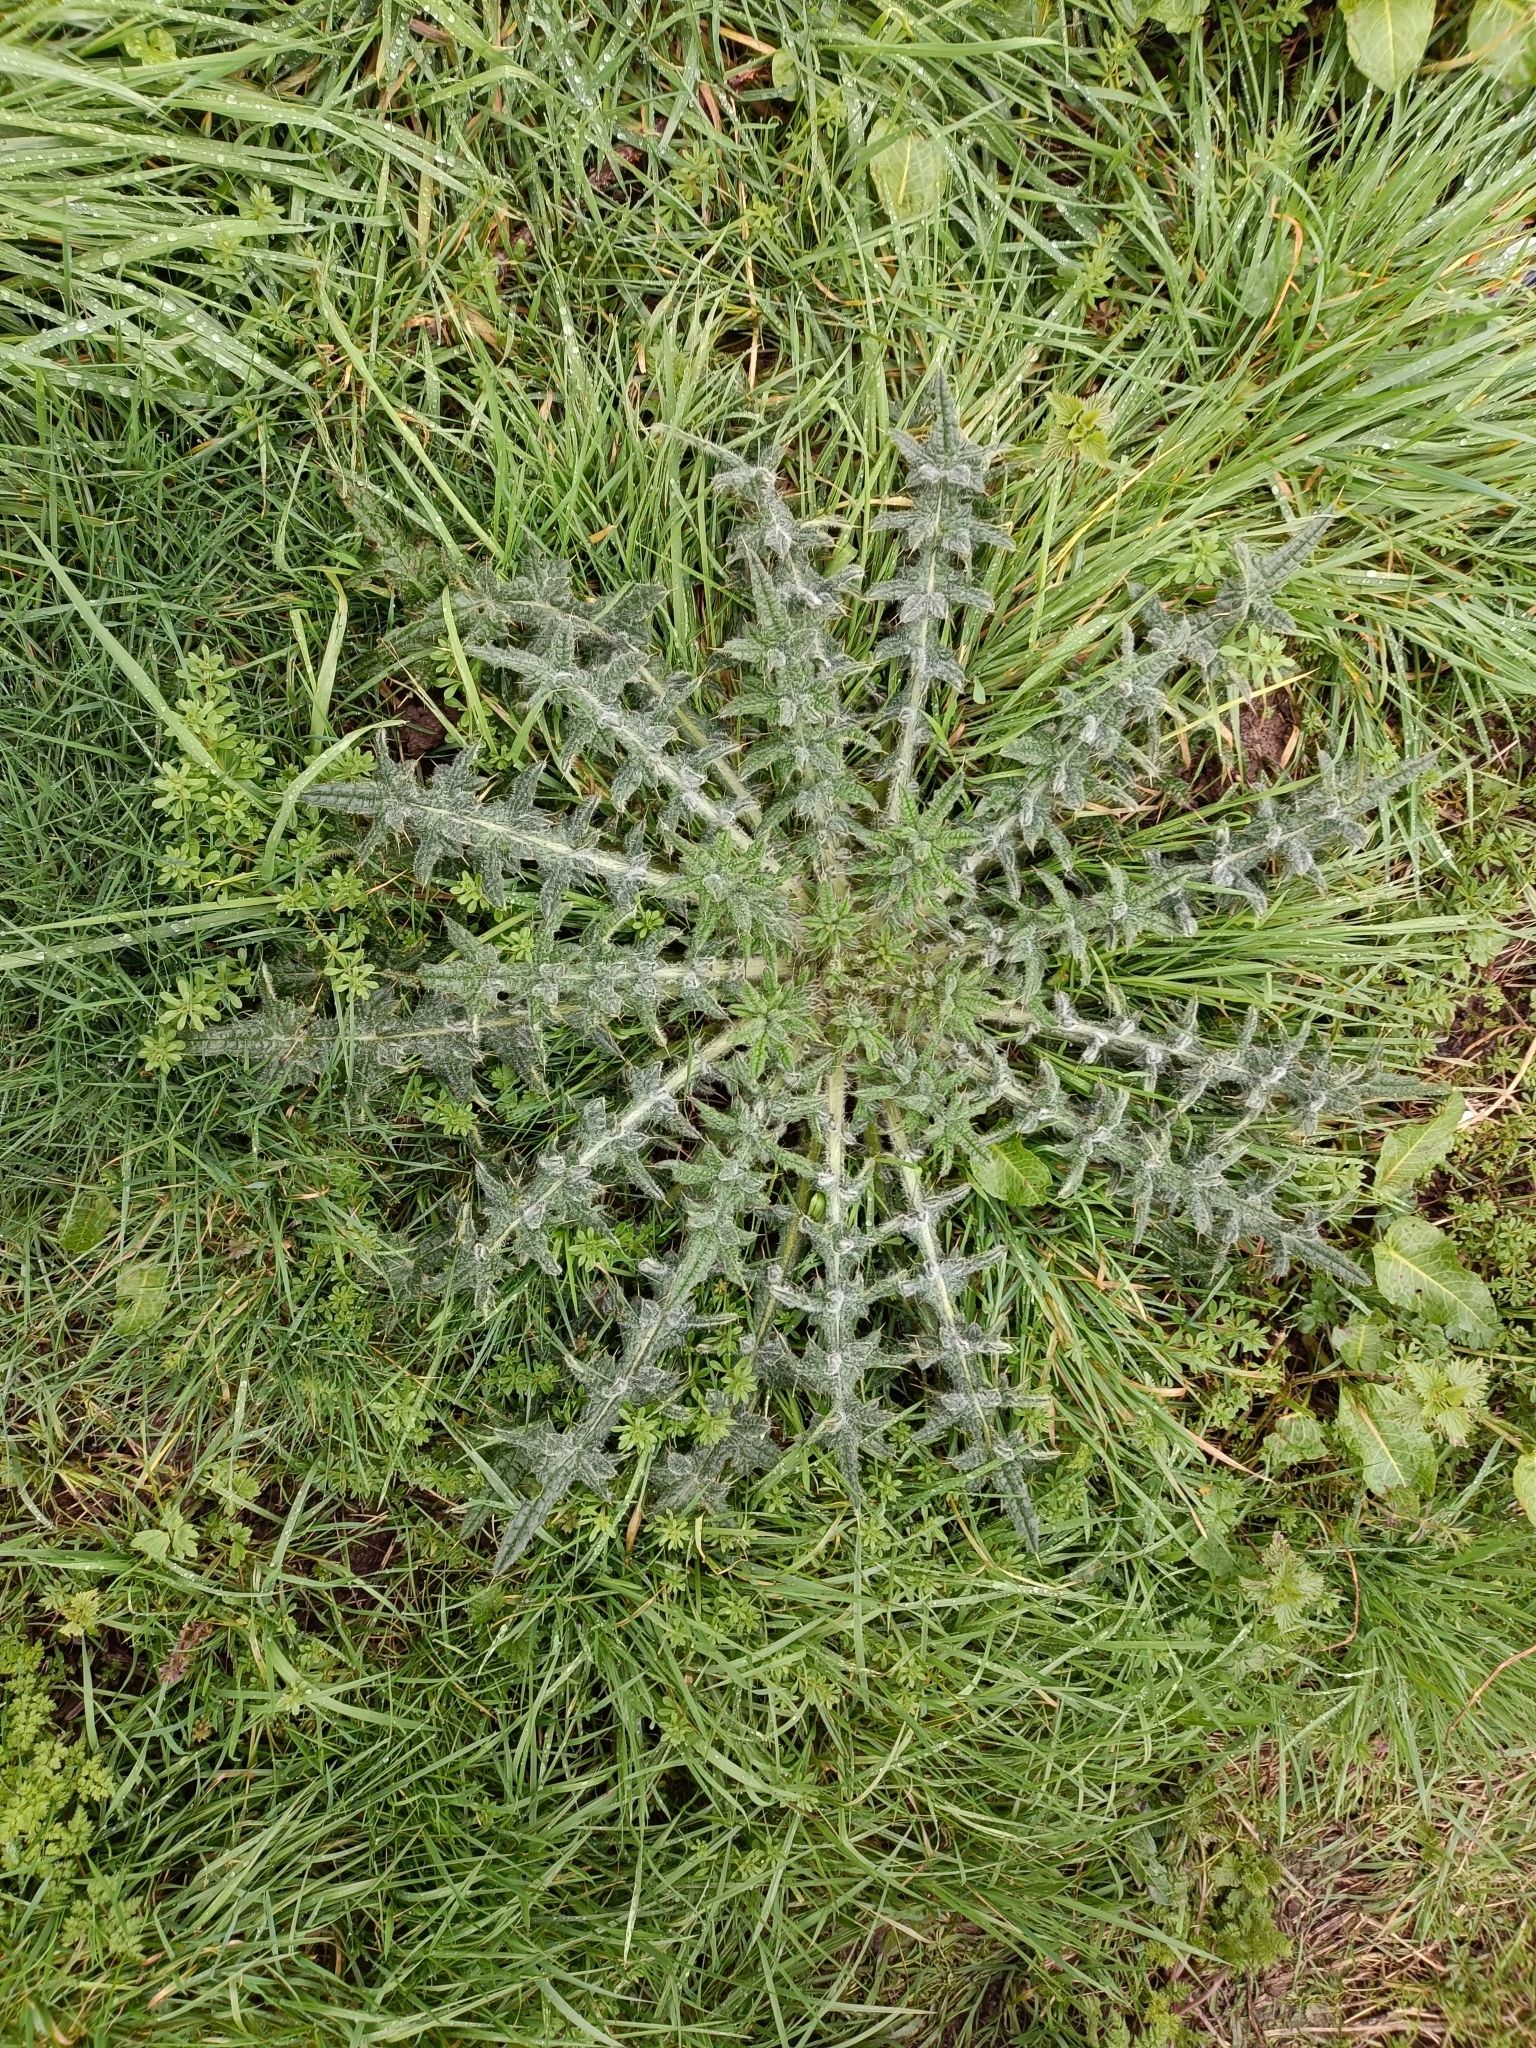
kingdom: Plantae
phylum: Tracheophyta
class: Magnoliopsida
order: Asterales
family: Asteraceae
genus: Cirsium
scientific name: Cirsium vulgare
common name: Bull thistle
